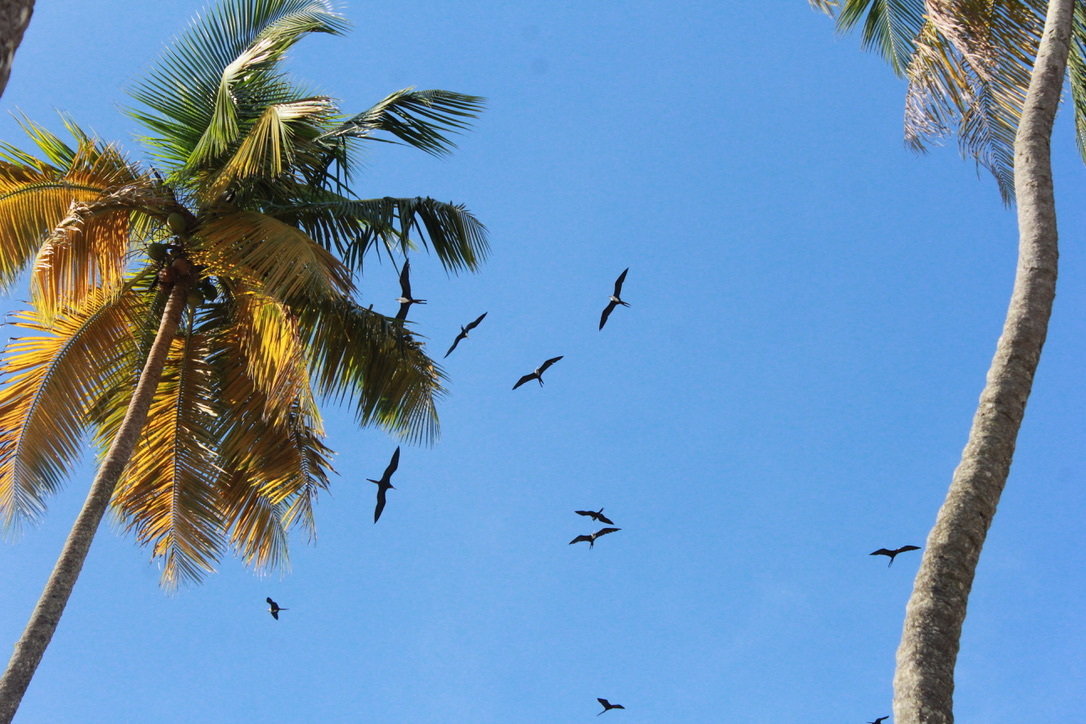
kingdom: Animalia
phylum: Chordata
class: Aves
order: Suliformes
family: Fregatidae
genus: Fregata
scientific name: Fregata magnificens
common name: Magnificent frigatebird
